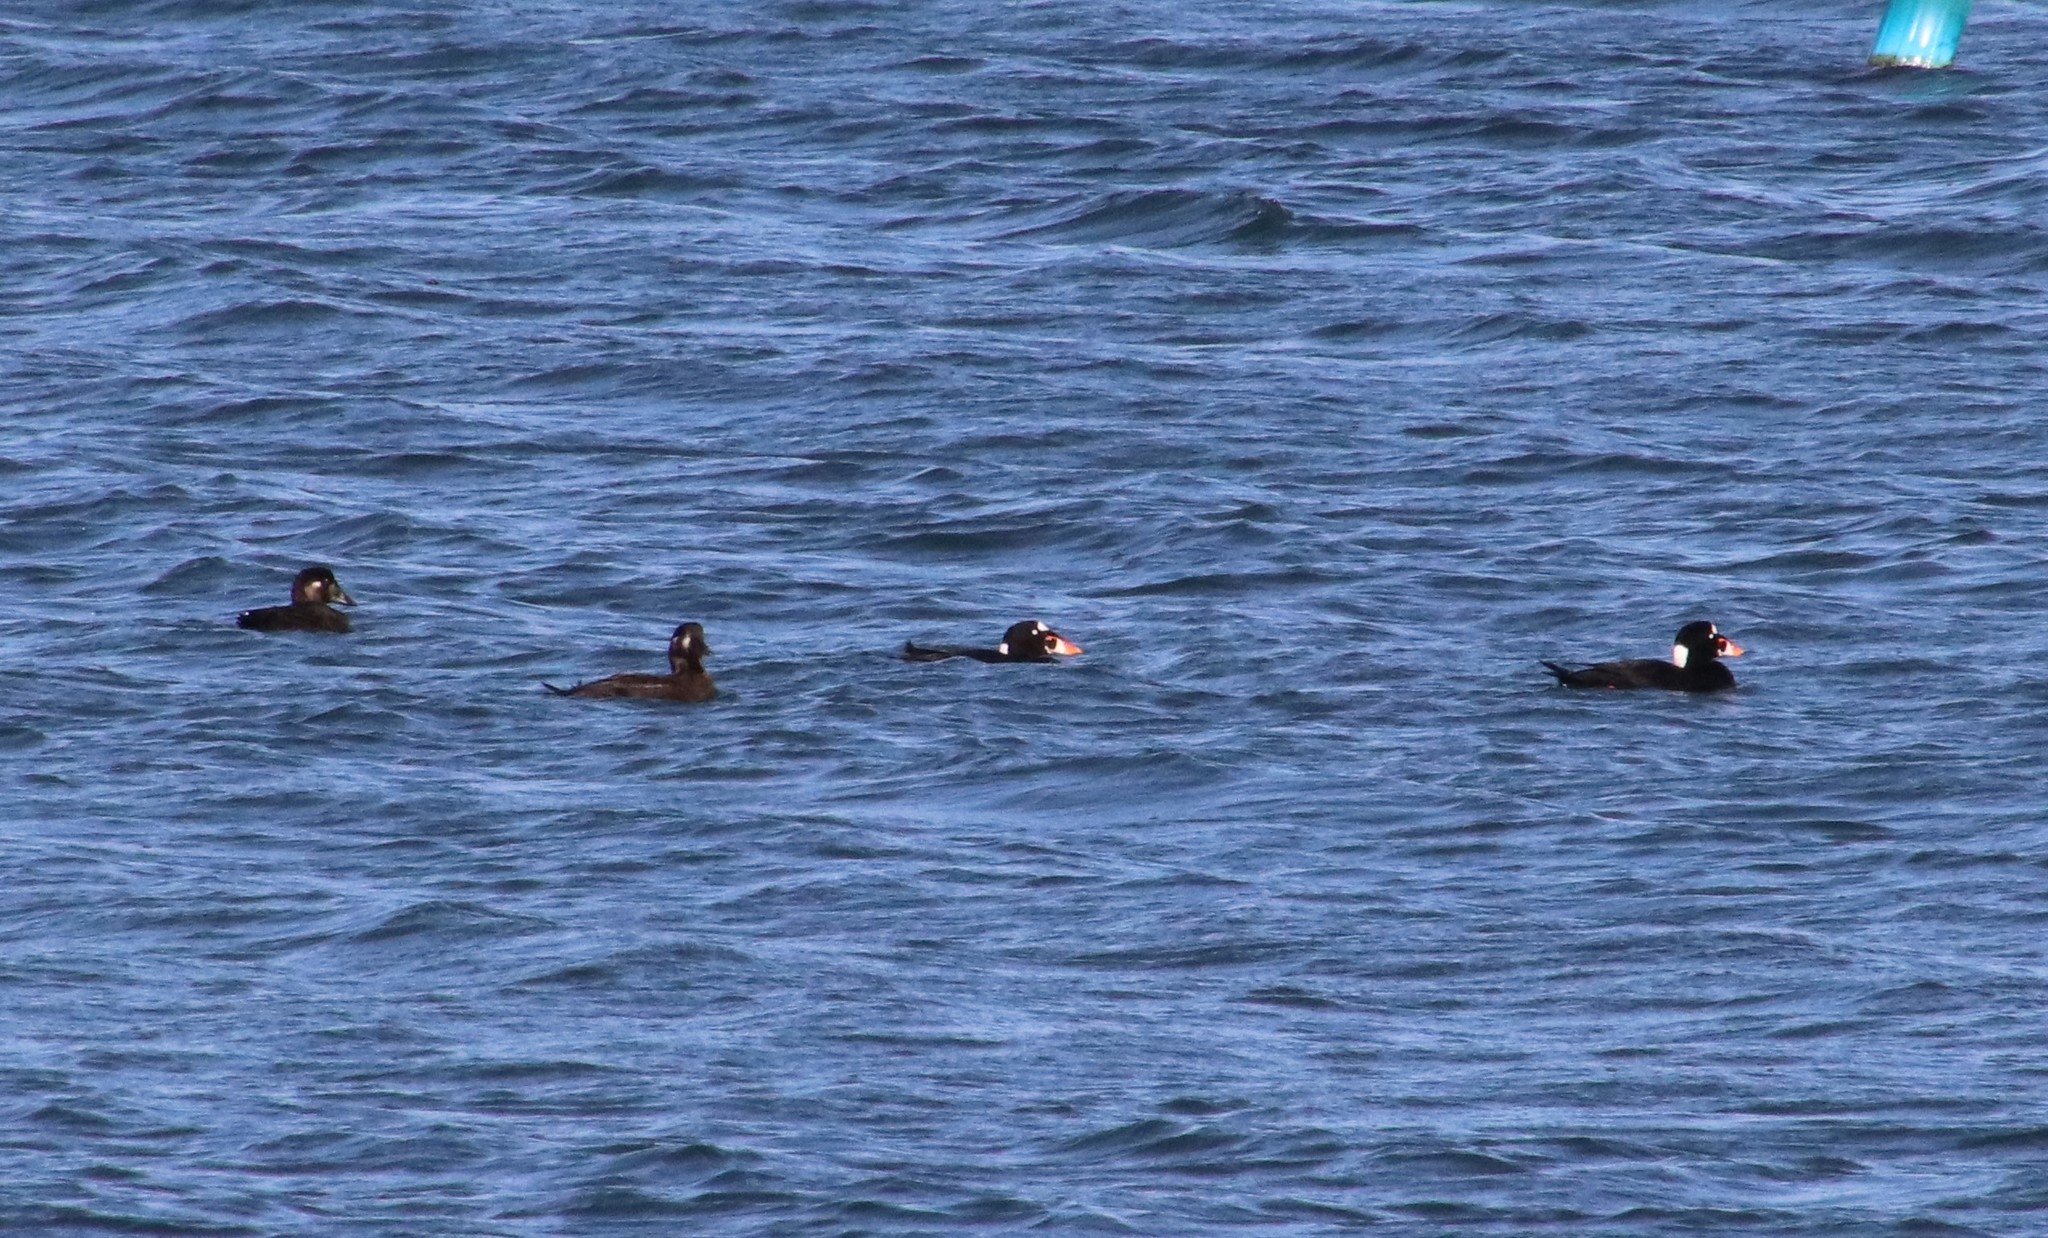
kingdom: Animalia
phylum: Chordata
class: Aves
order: Anseriformes
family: Anatidae
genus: Melanitta
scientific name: Melanitta perspicillata
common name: Surf scoter
